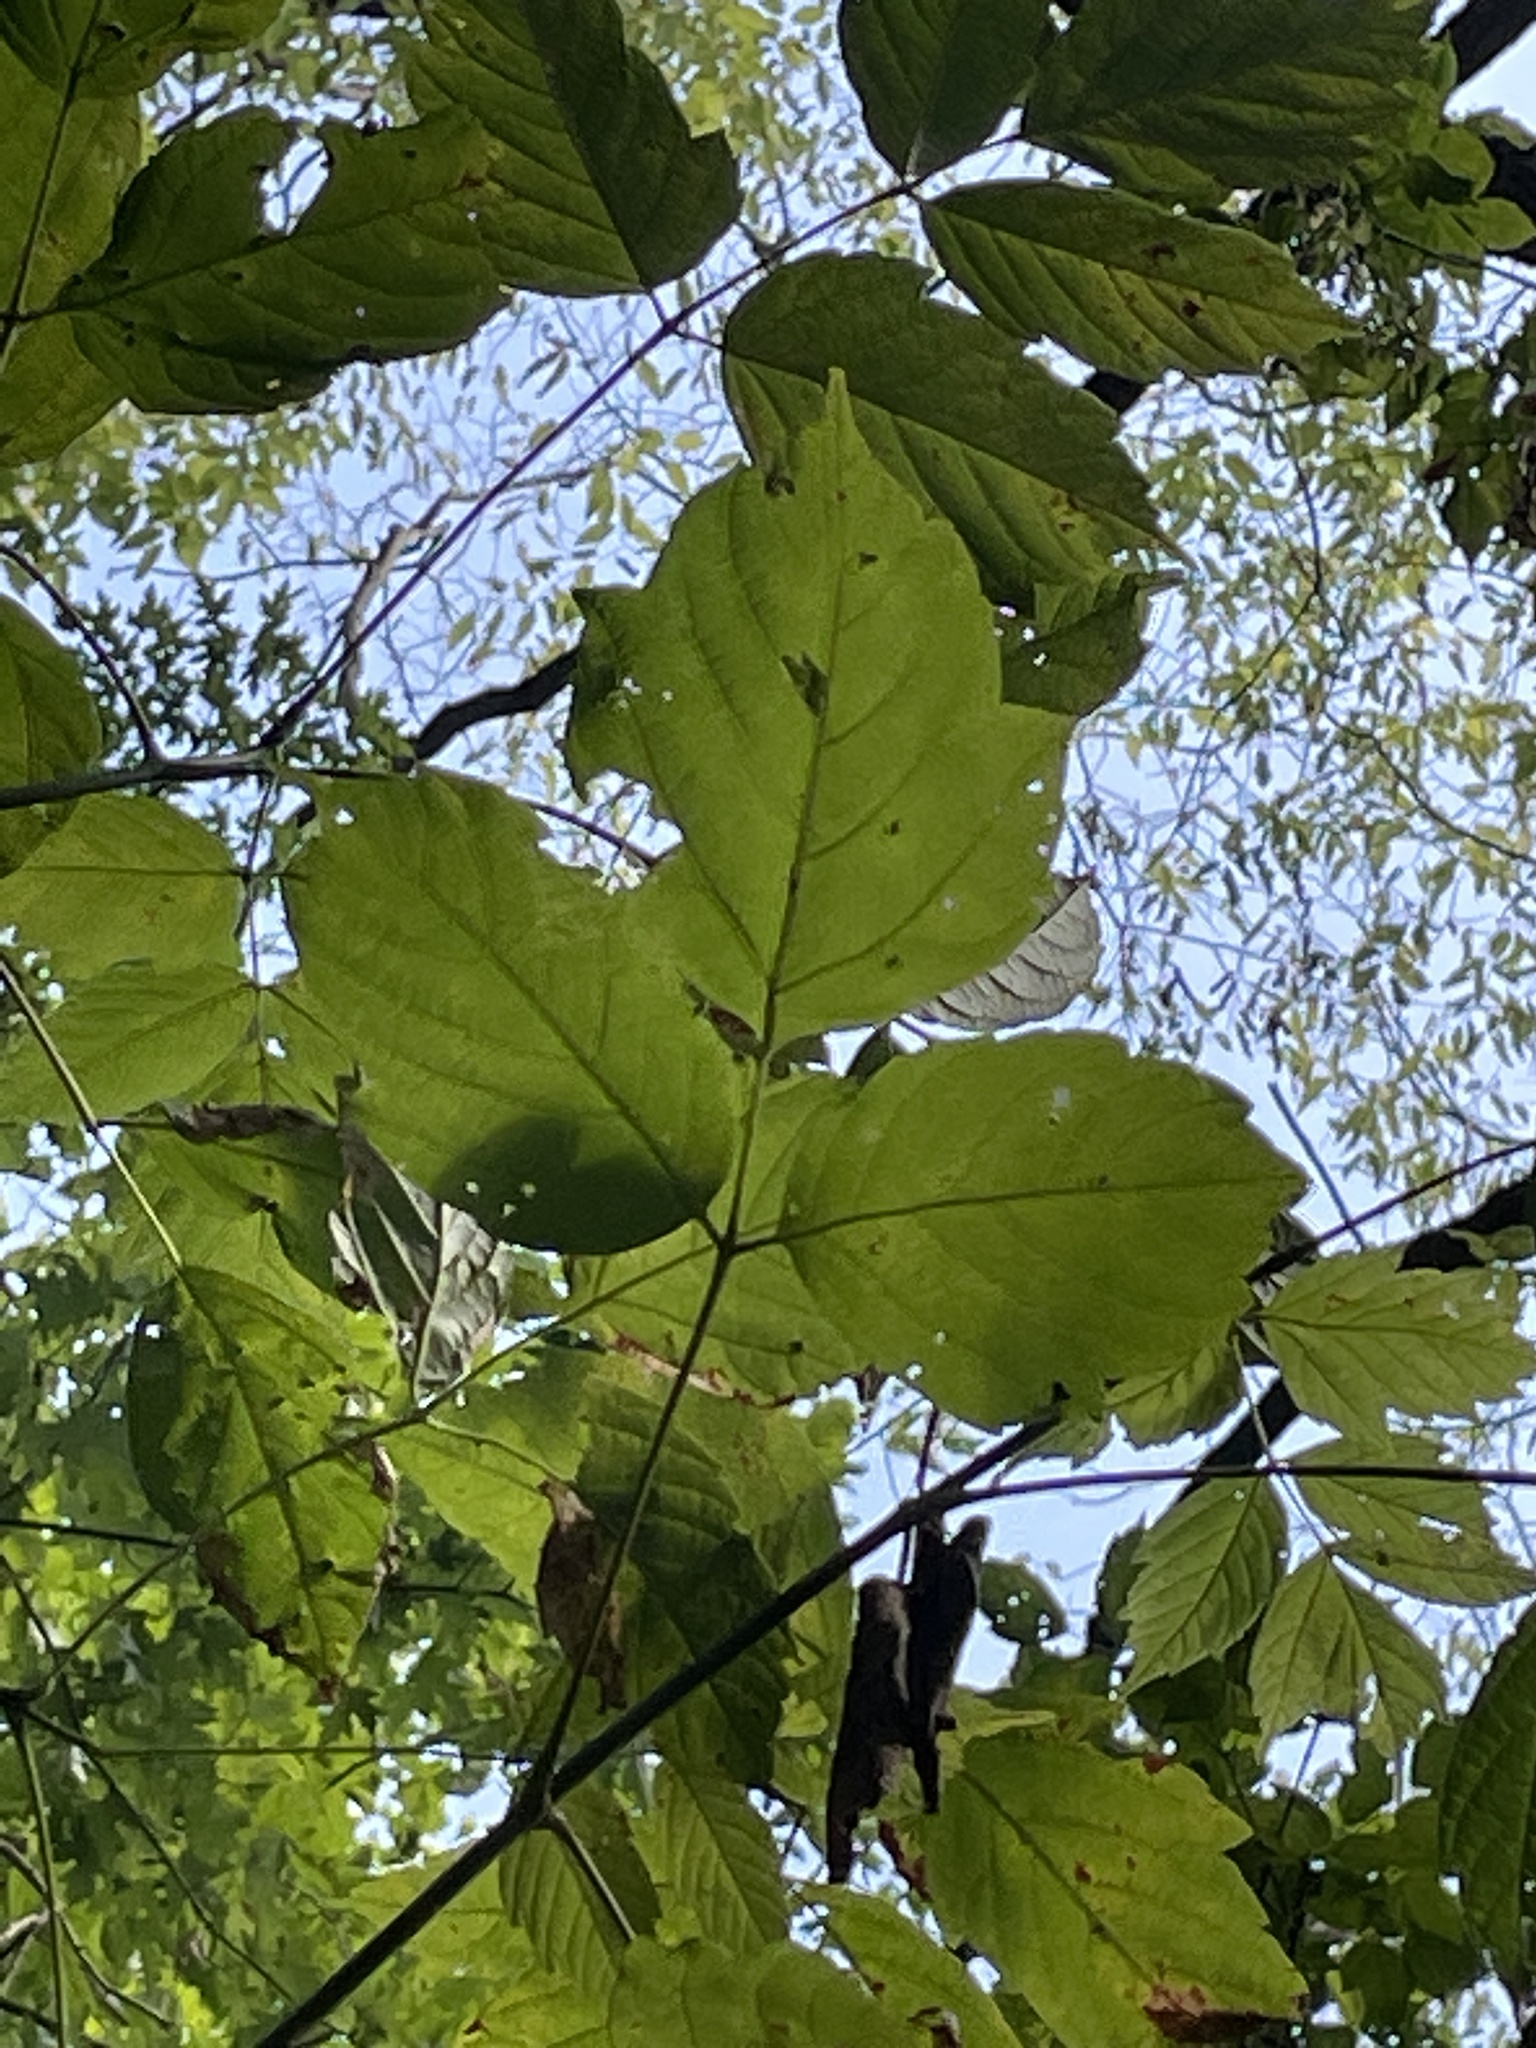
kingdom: Plantae
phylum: Tracheophyta
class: Magnoliopsida
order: Sapindales
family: Sapindaceae
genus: Acer
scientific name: Acer negundo
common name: Ashleaf maple
